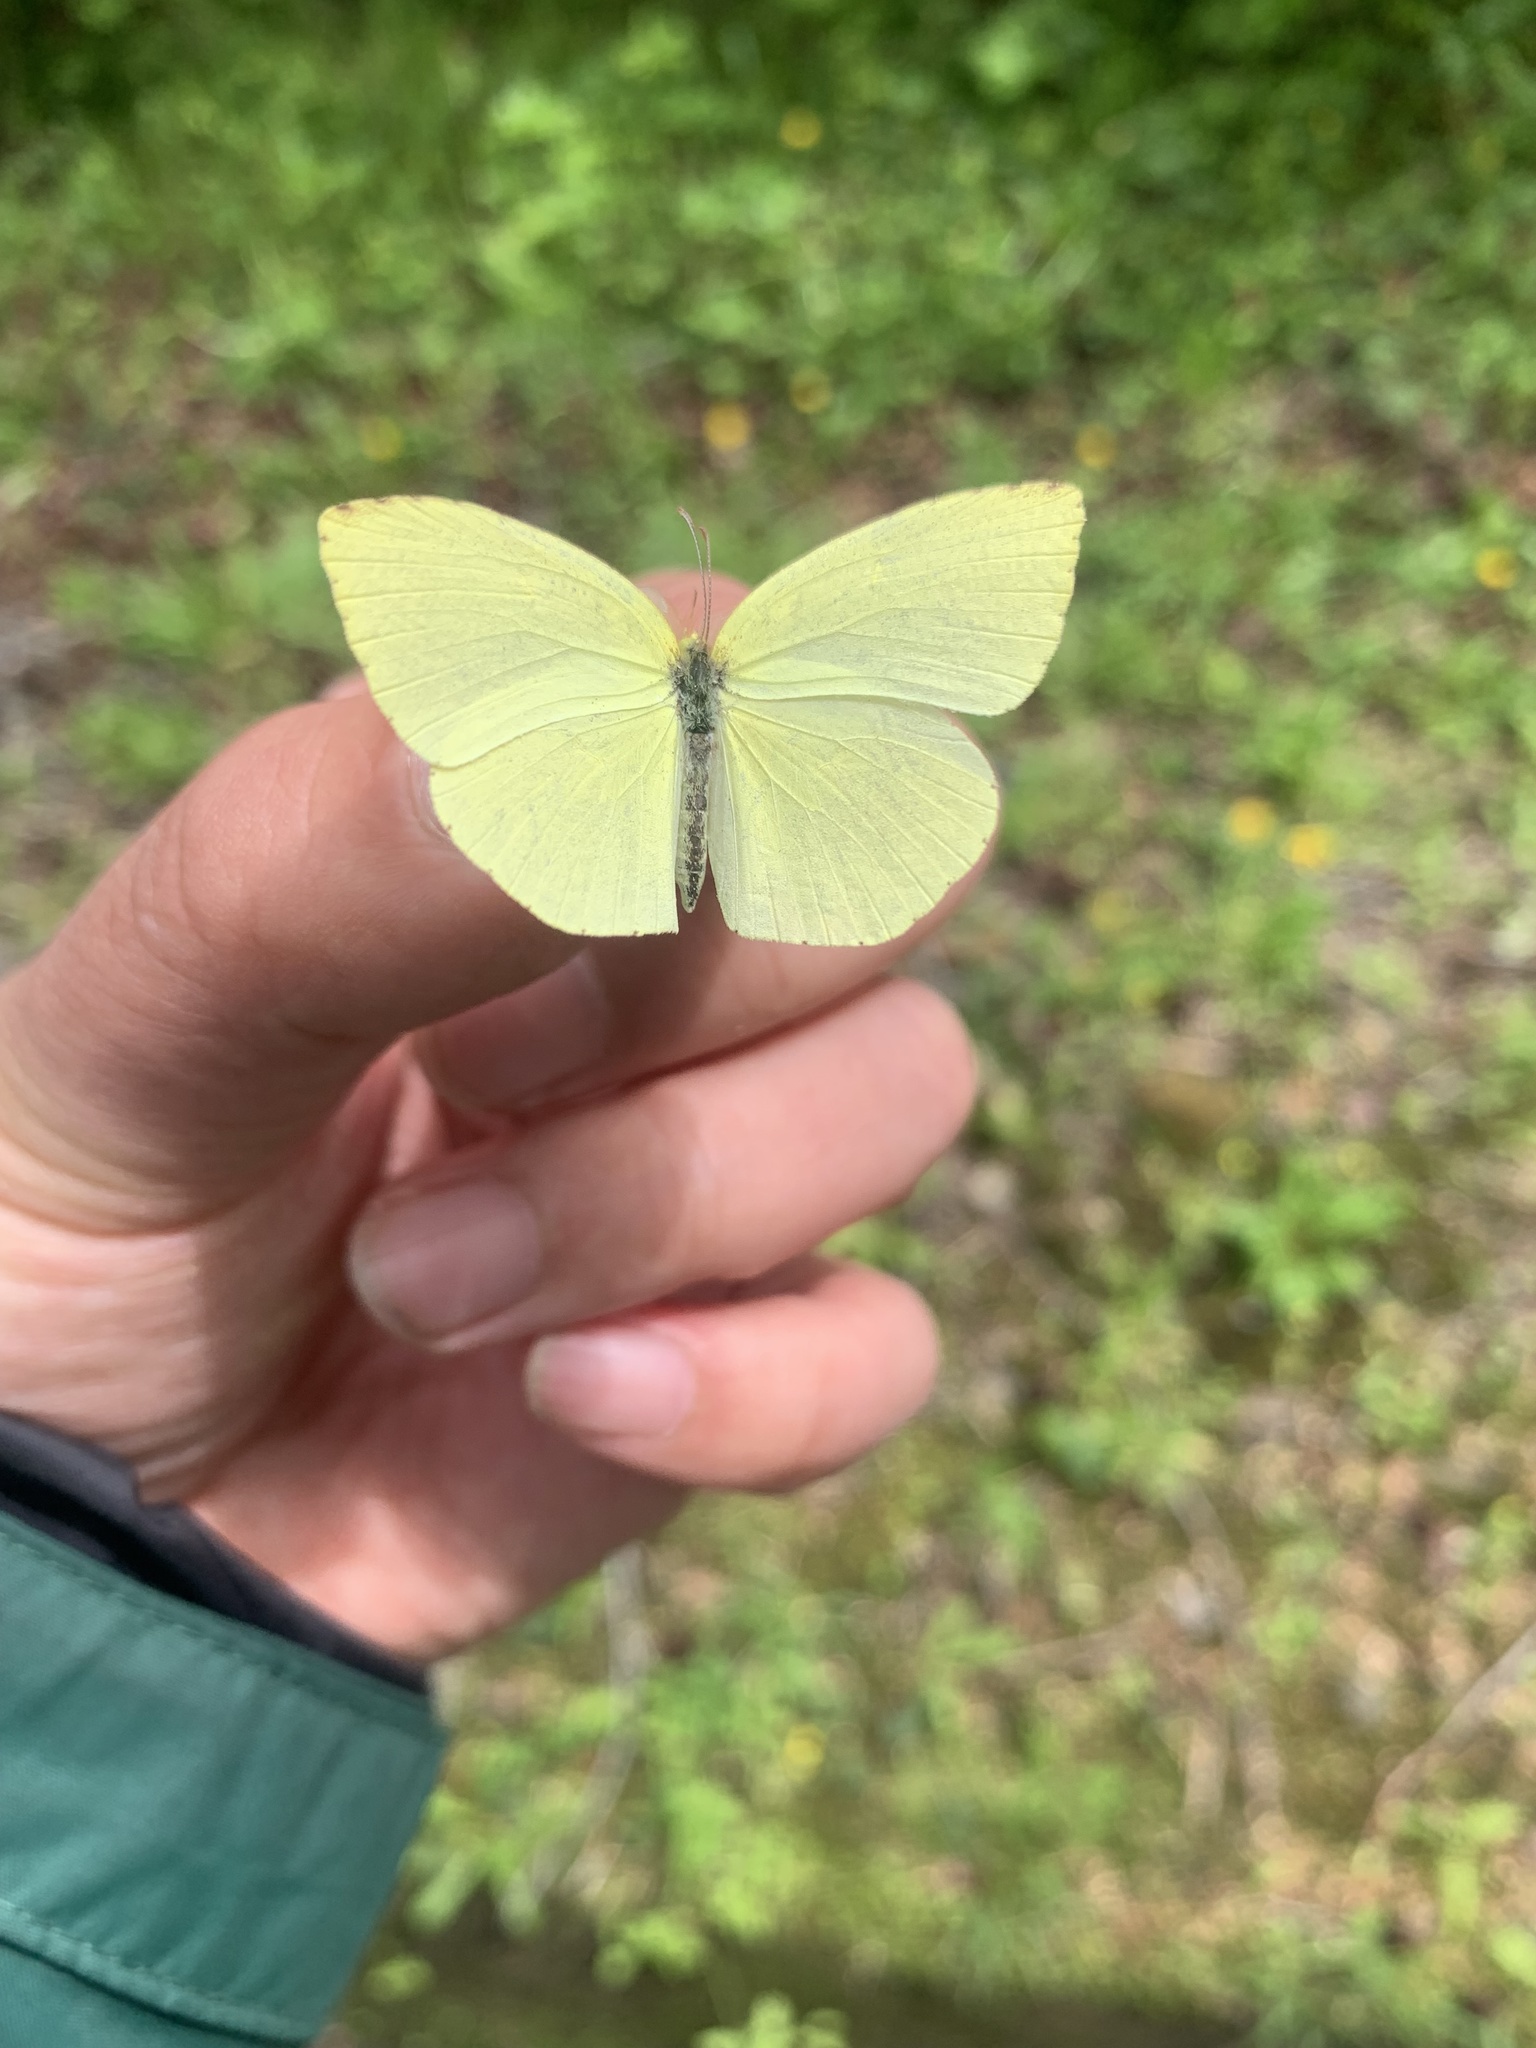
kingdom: Animalia
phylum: Arthropoda
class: Insecta
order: Lepidoptera
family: Pieridae
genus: Eurema
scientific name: Eurema mandarina
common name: Japanese common grass yellow
